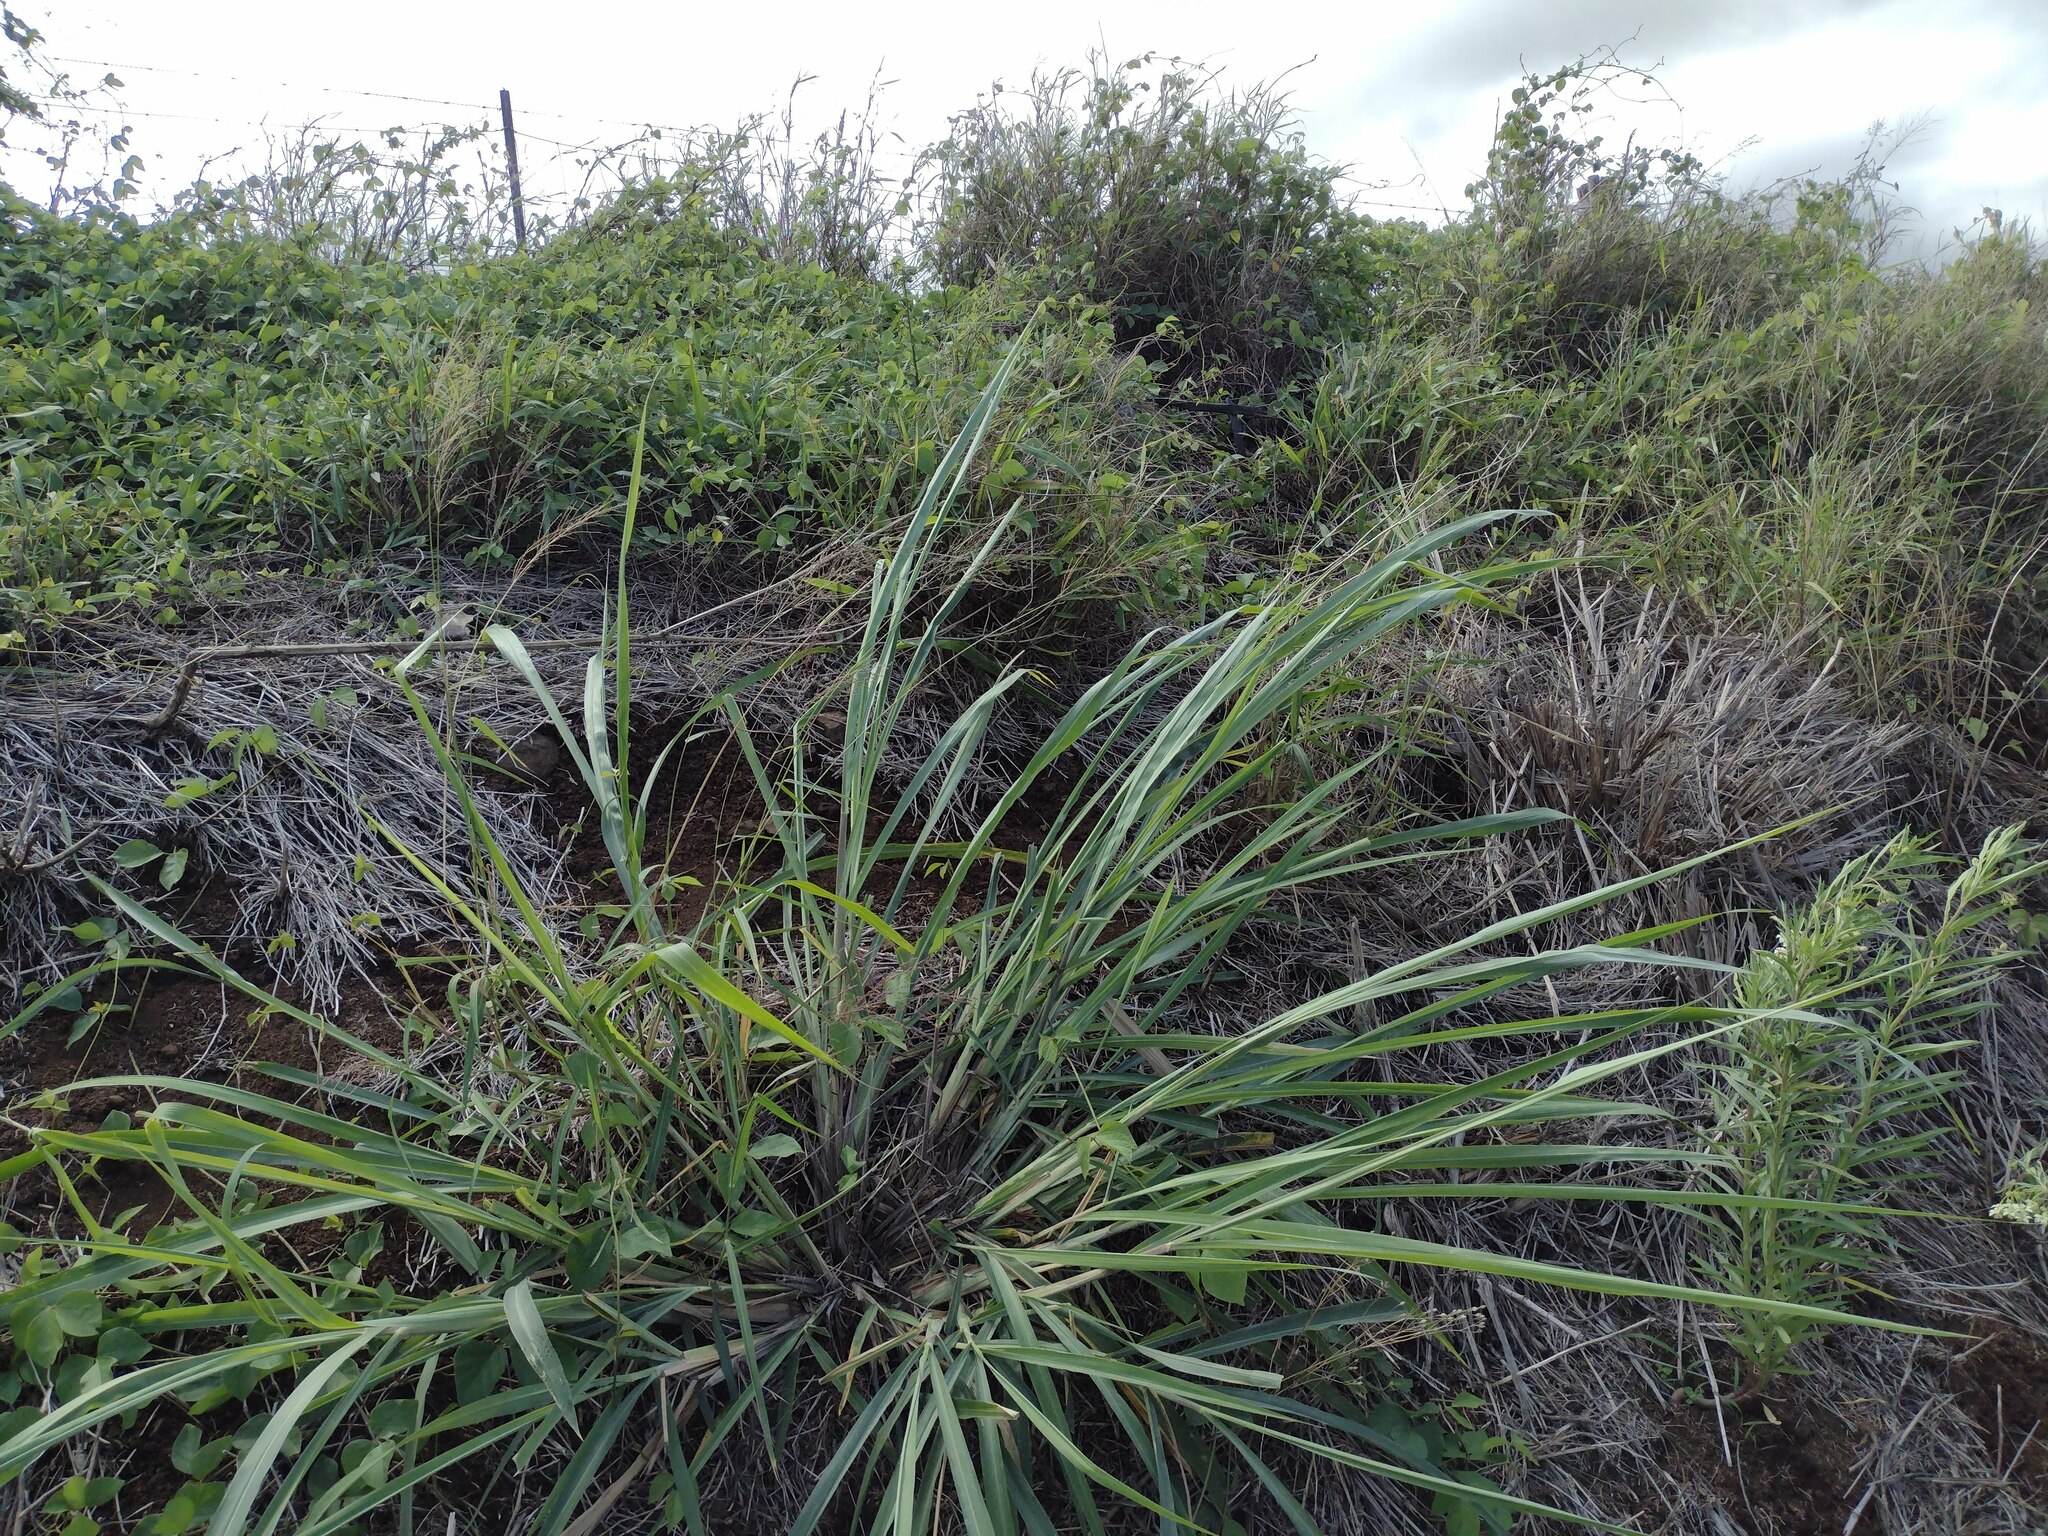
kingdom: Plantae
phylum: Tracheophyta
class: Liliopsida
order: Poales
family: Poaceae
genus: Megathyrsus
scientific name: Megathyrsus maximus
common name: Guineagrass
